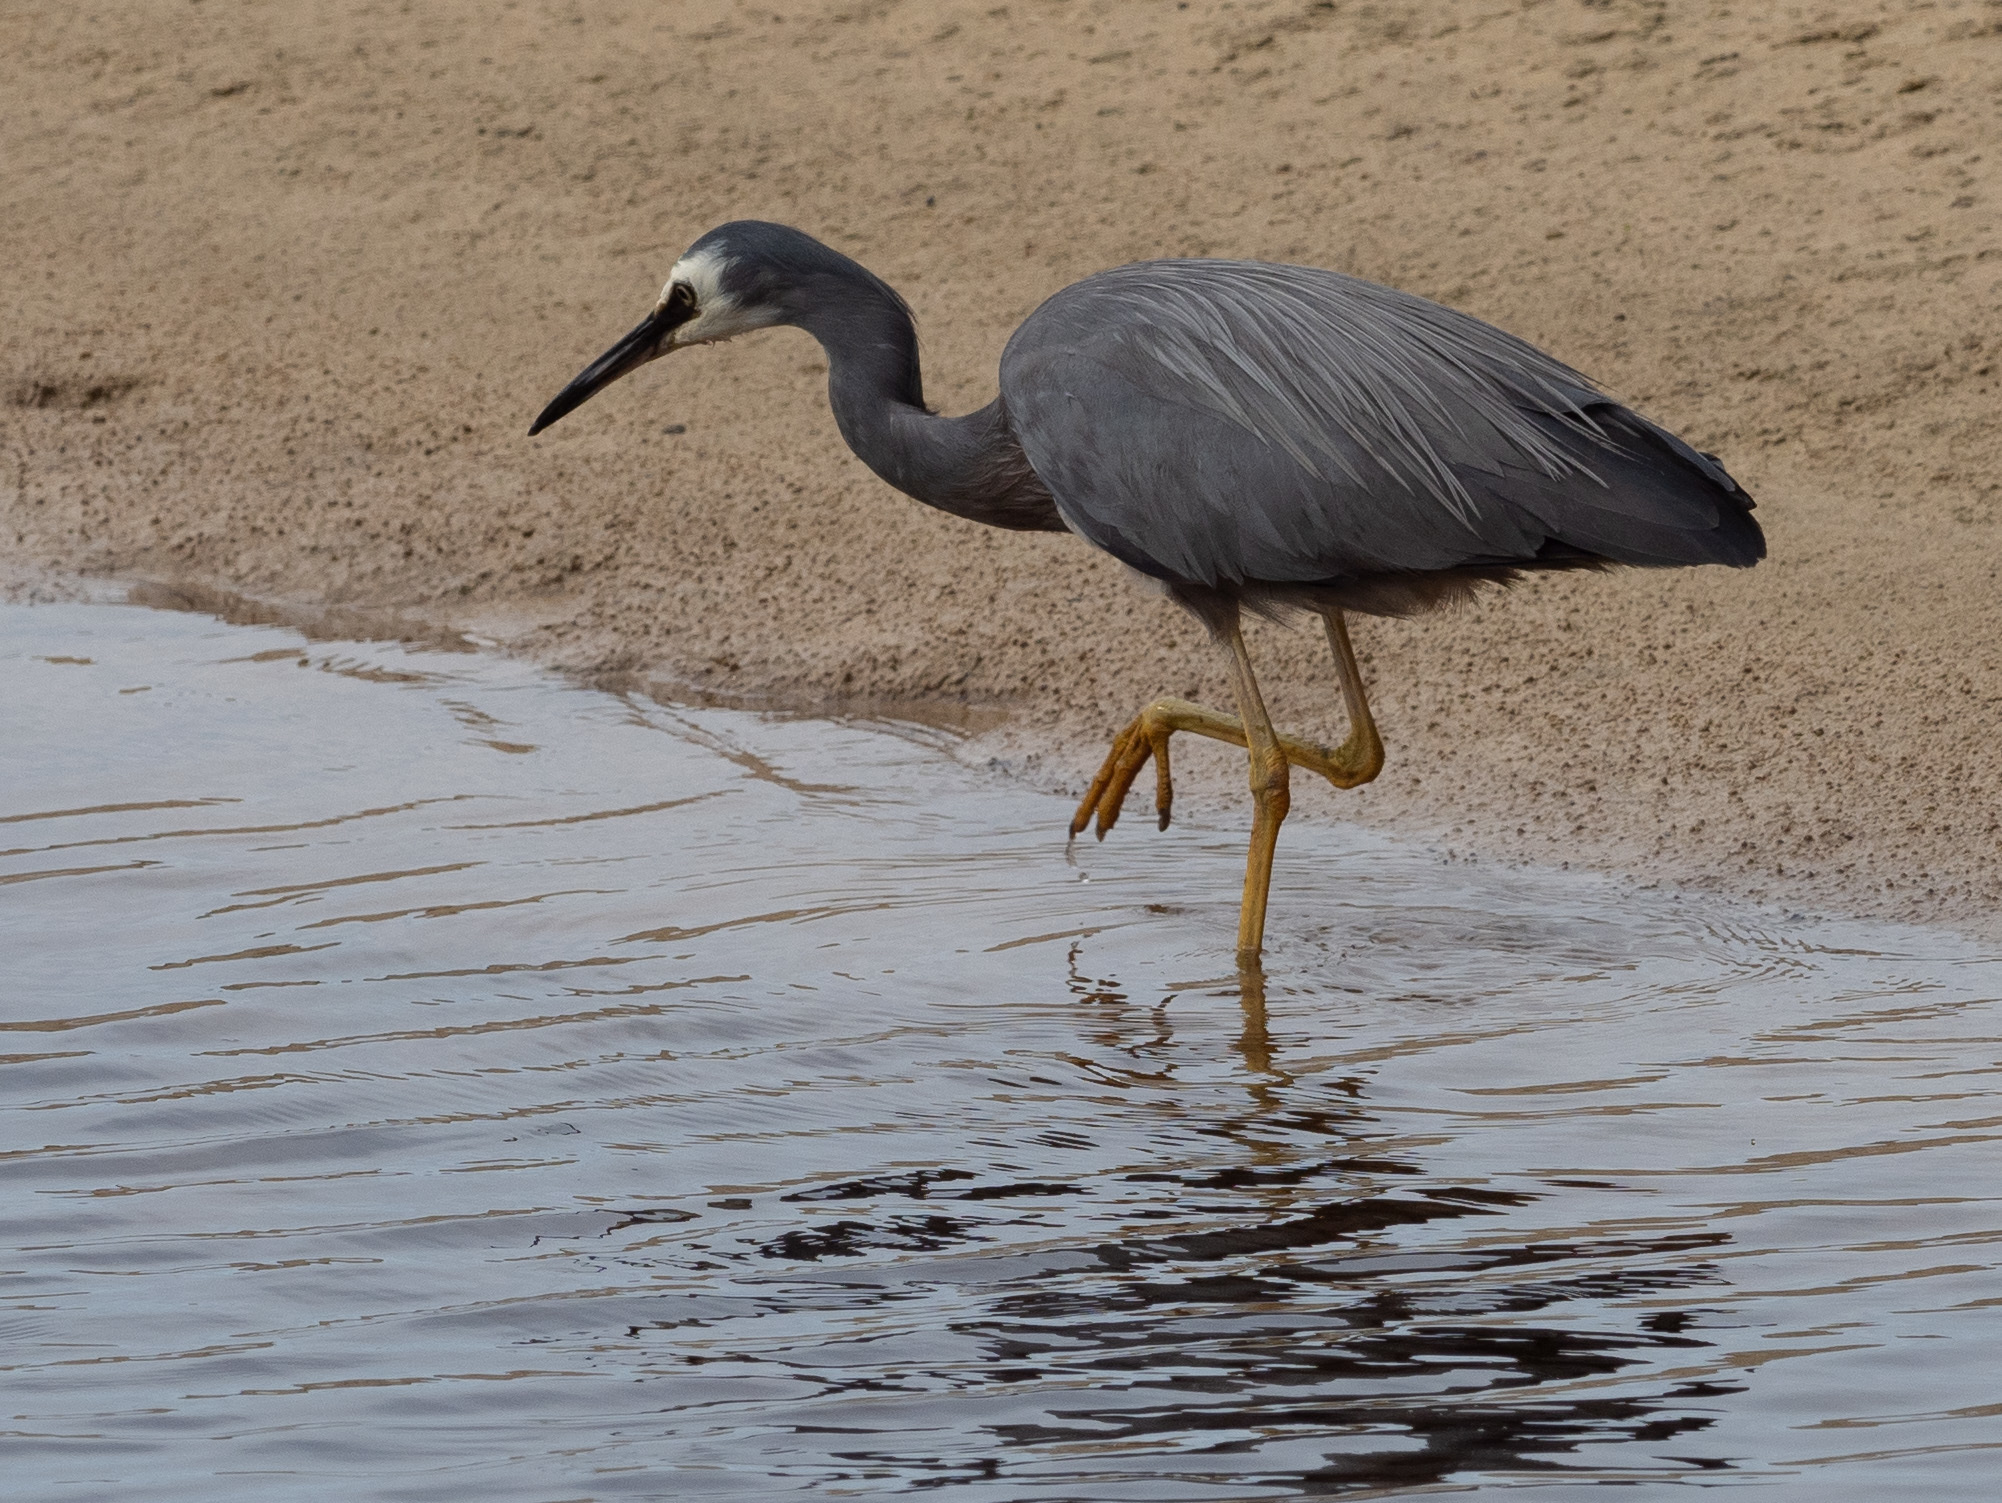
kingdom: Animalia
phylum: Chordata
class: Aves
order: Pelecaniformes
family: Ardeidae
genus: Egretta
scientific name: Egretta novaehollandiae
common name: White-faced heron
